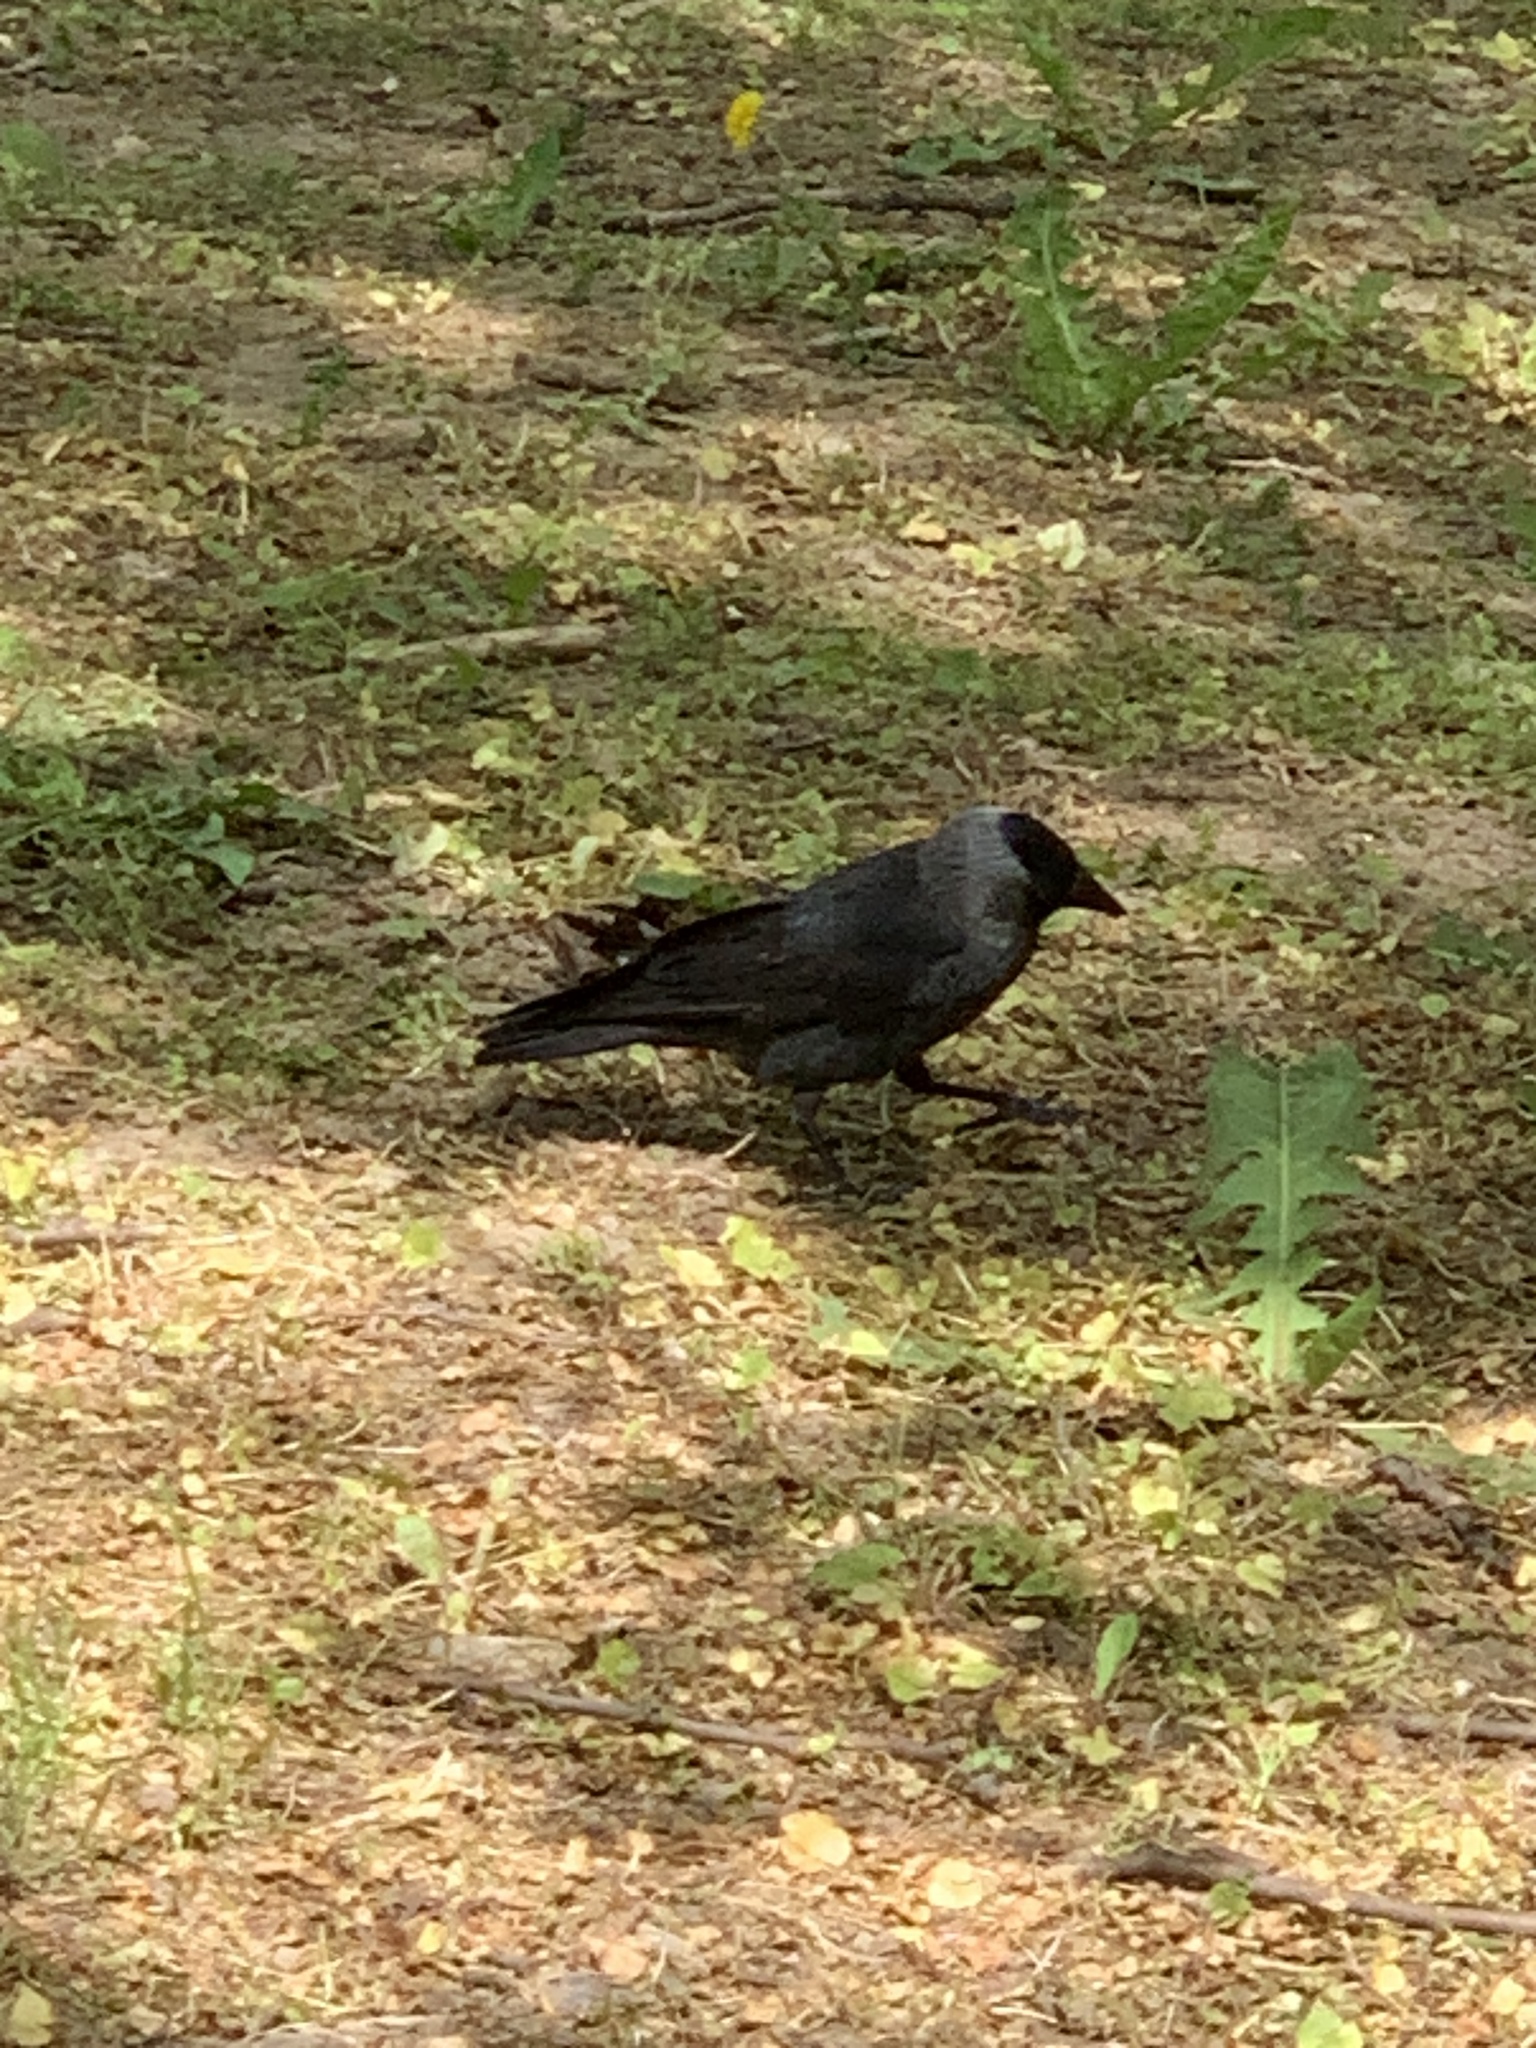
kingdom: Animalia
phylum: Chordata
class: Aves
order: Passeriformes
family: Corvidae
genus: Coloeus
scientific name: Coloeus monedula
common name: Western jackdaw
